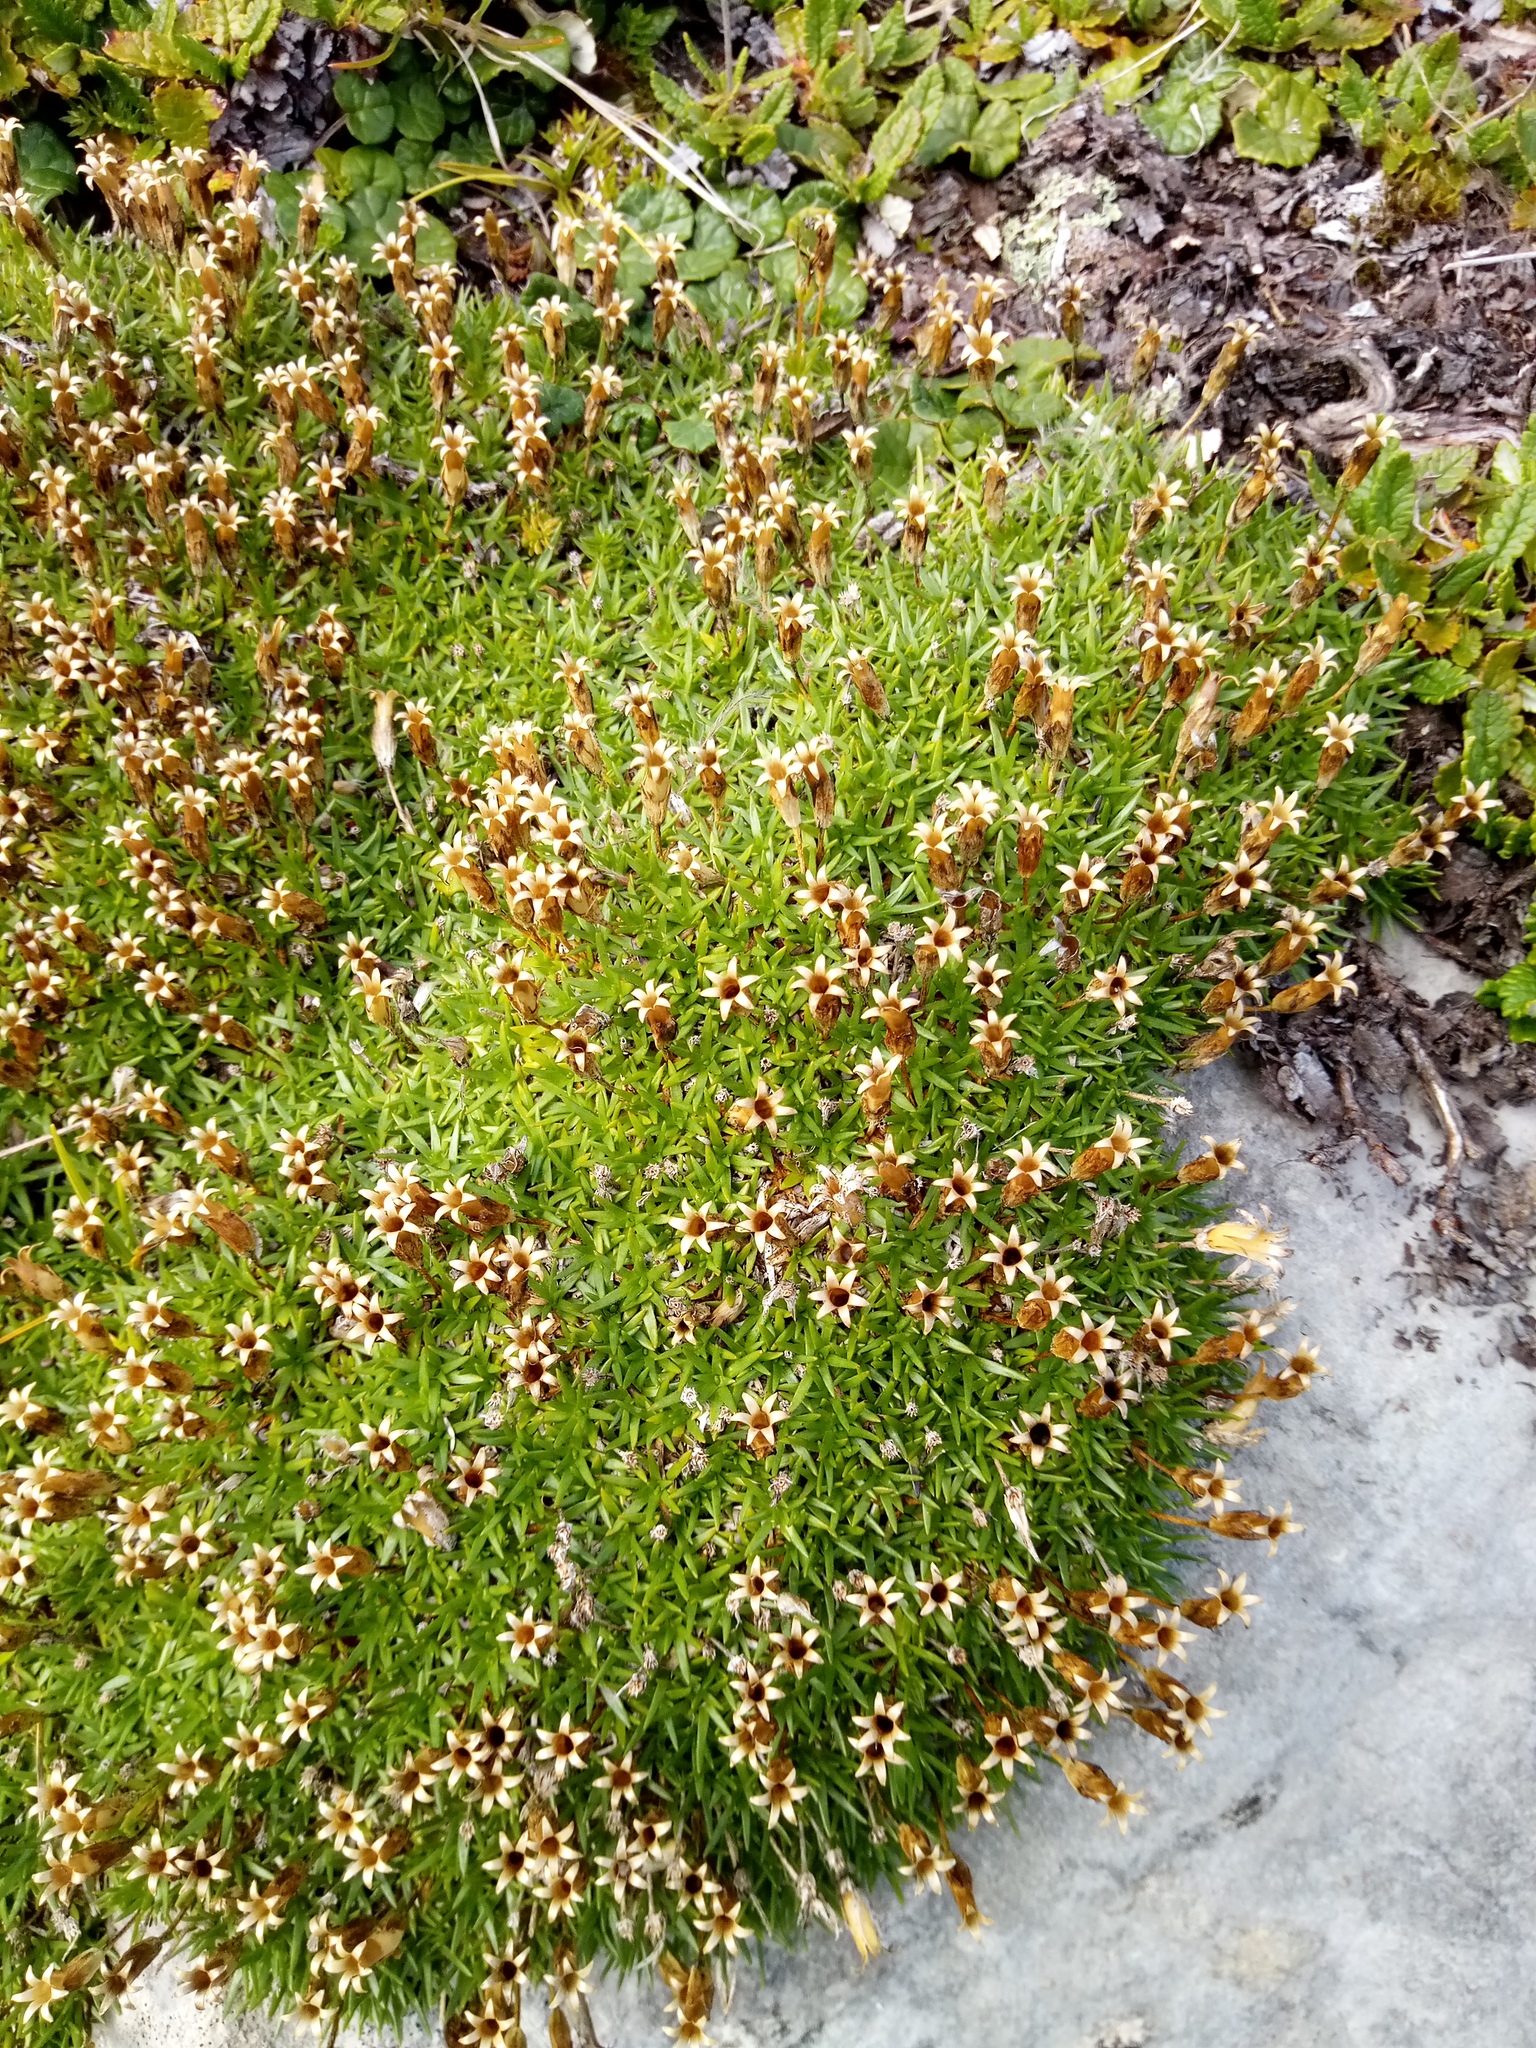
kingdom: Plantae
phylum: Tracheophyta
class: Magnoliopsida
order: Caryophyllales
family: Caryophyllaceae
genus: Silene
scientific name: Silene acaulis
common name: Moss campion
